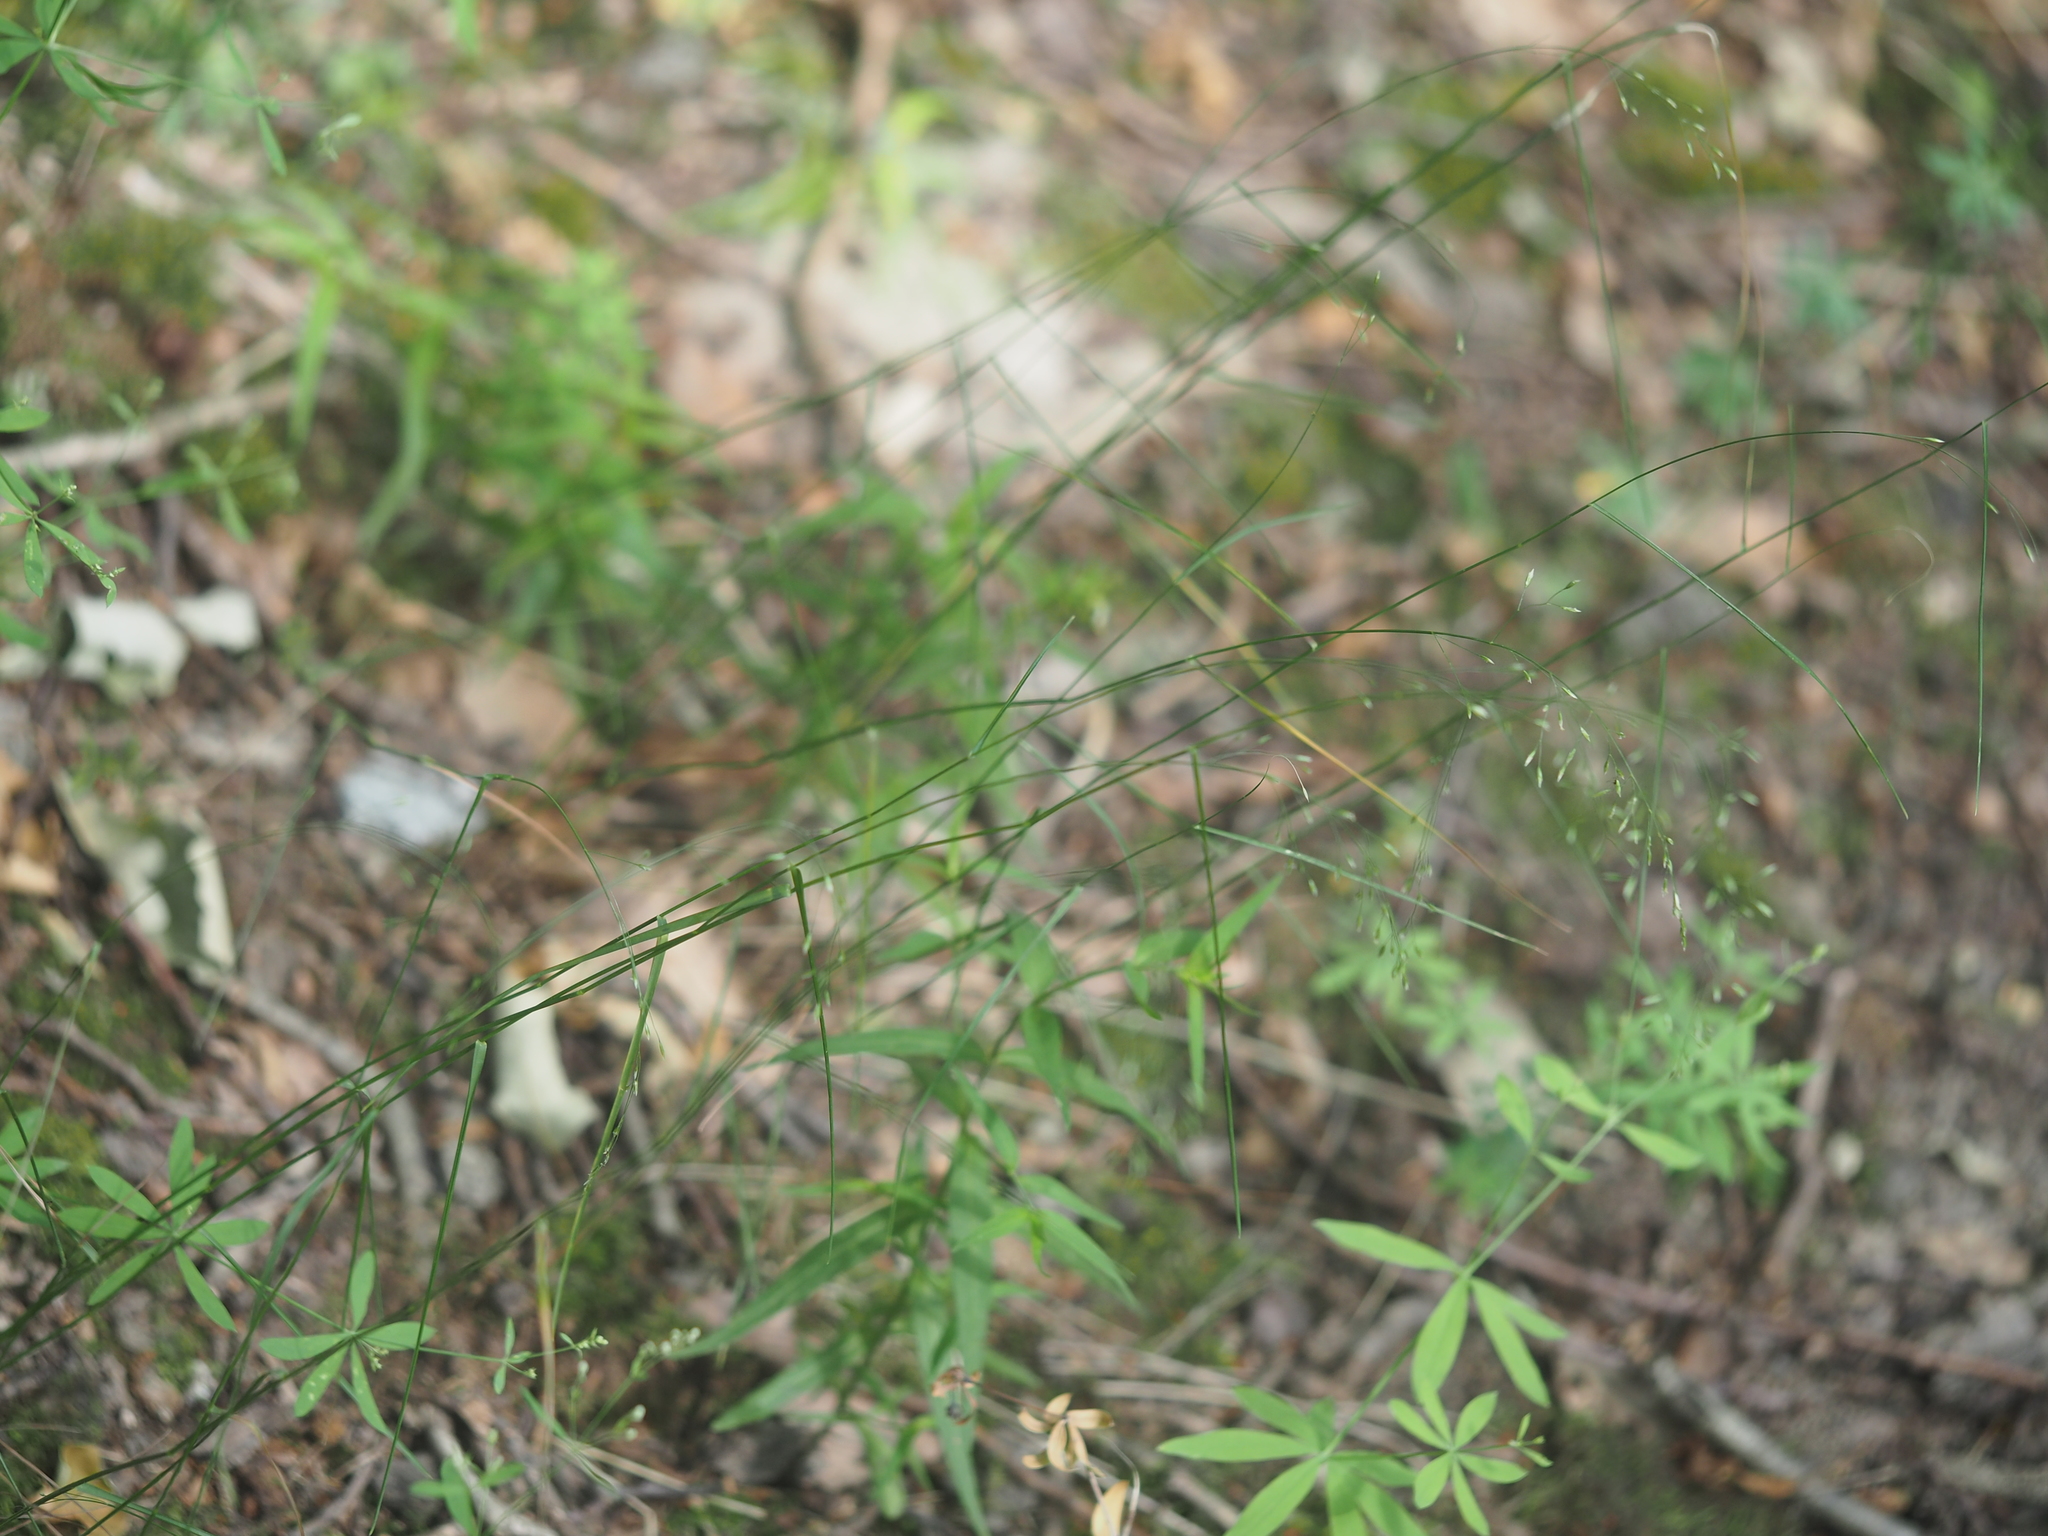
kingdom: Plantae
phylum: Tracheophyta
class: Liliopsida
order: Poales
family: Poaceae
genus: Poa
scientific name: Poa nemoralis
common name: Wood bluegrass
